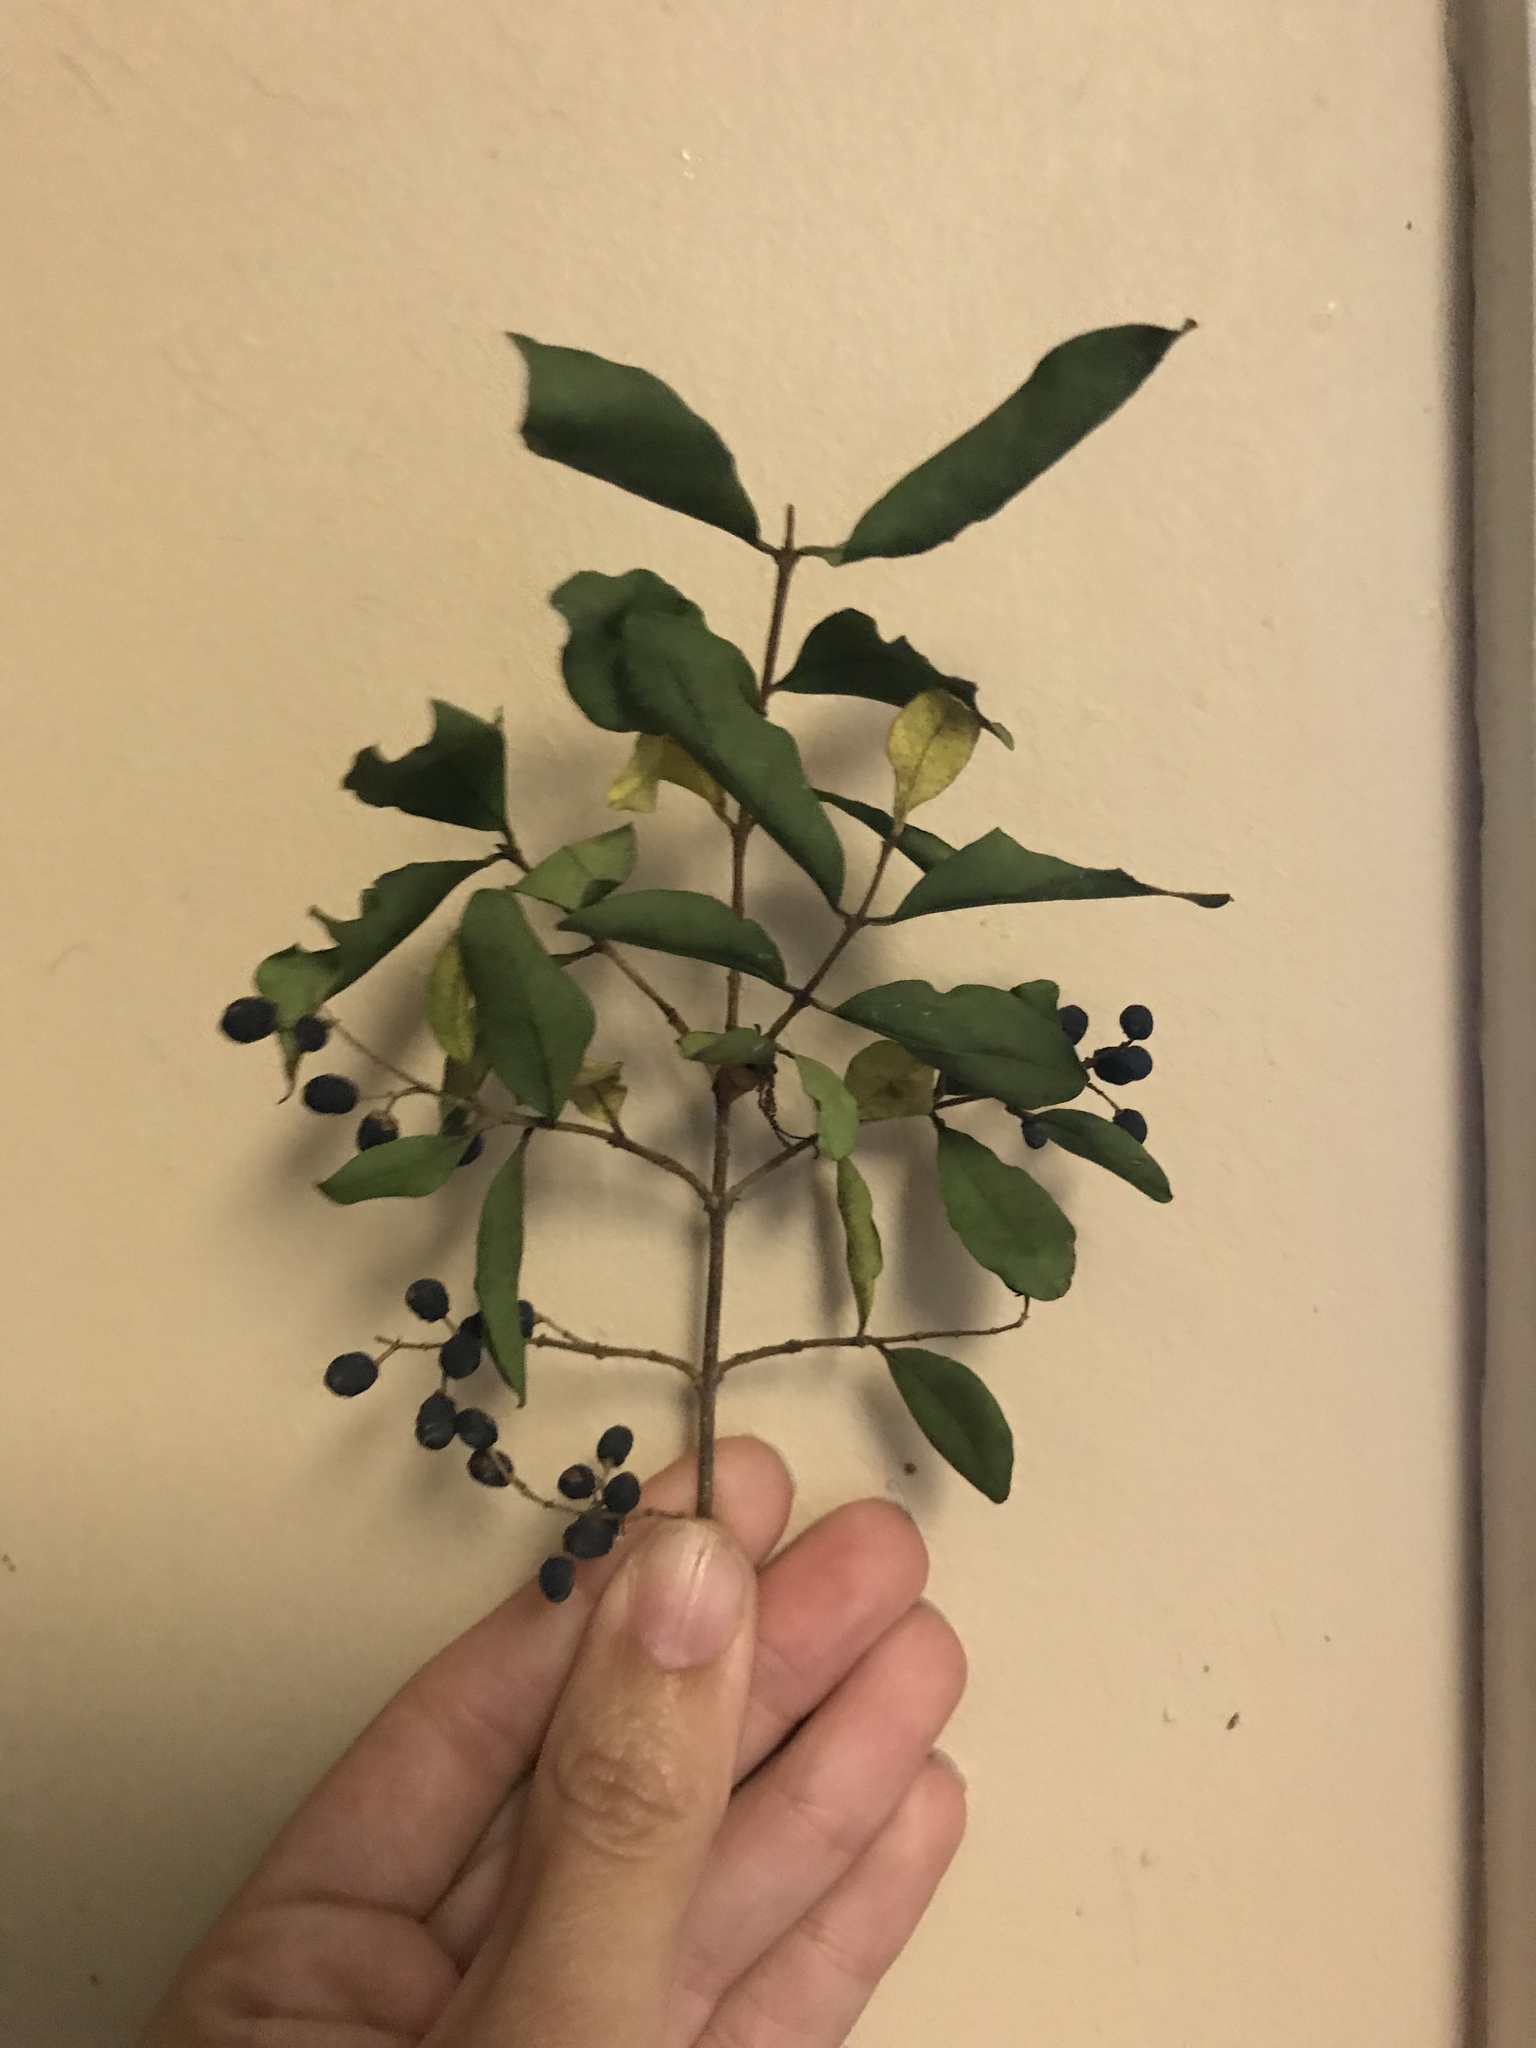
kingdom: Plantae
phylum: Tracheophyta
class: Magnoliopsida
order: Lamiales
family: Oleaceae
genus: Ligustrum
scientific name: Ligustrum sinense
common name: Chinese privet
